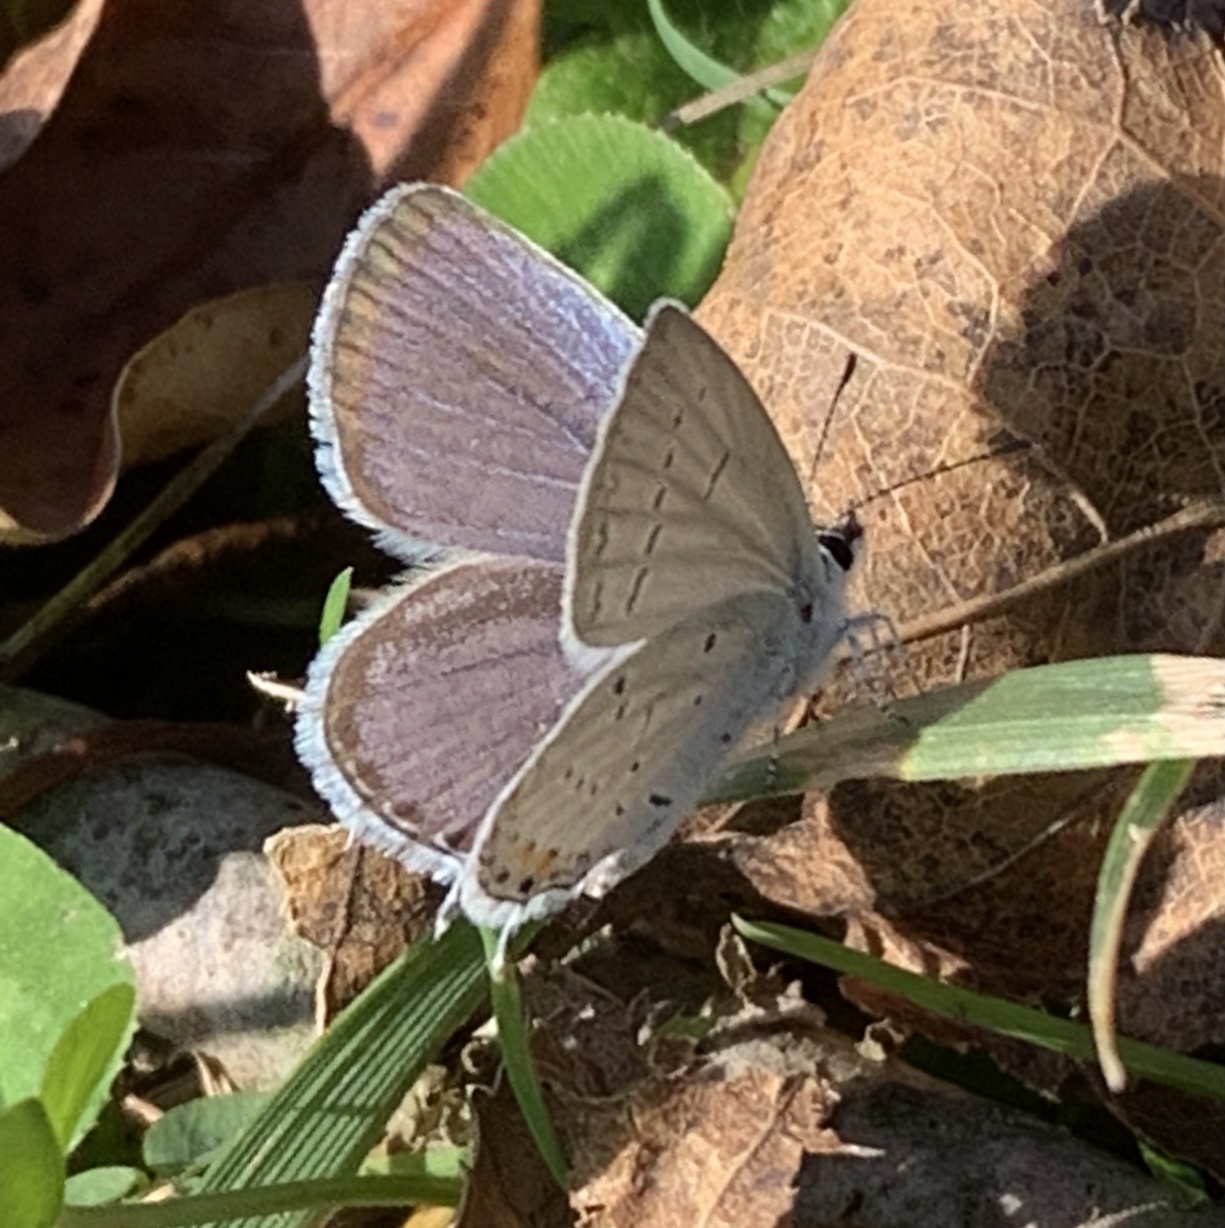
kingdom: Animalia
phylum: Arthropoda
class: Insecta
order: Lepidoptera
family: Lycaenidae
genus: Elkalyce
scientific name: Elkalyce comyntas
